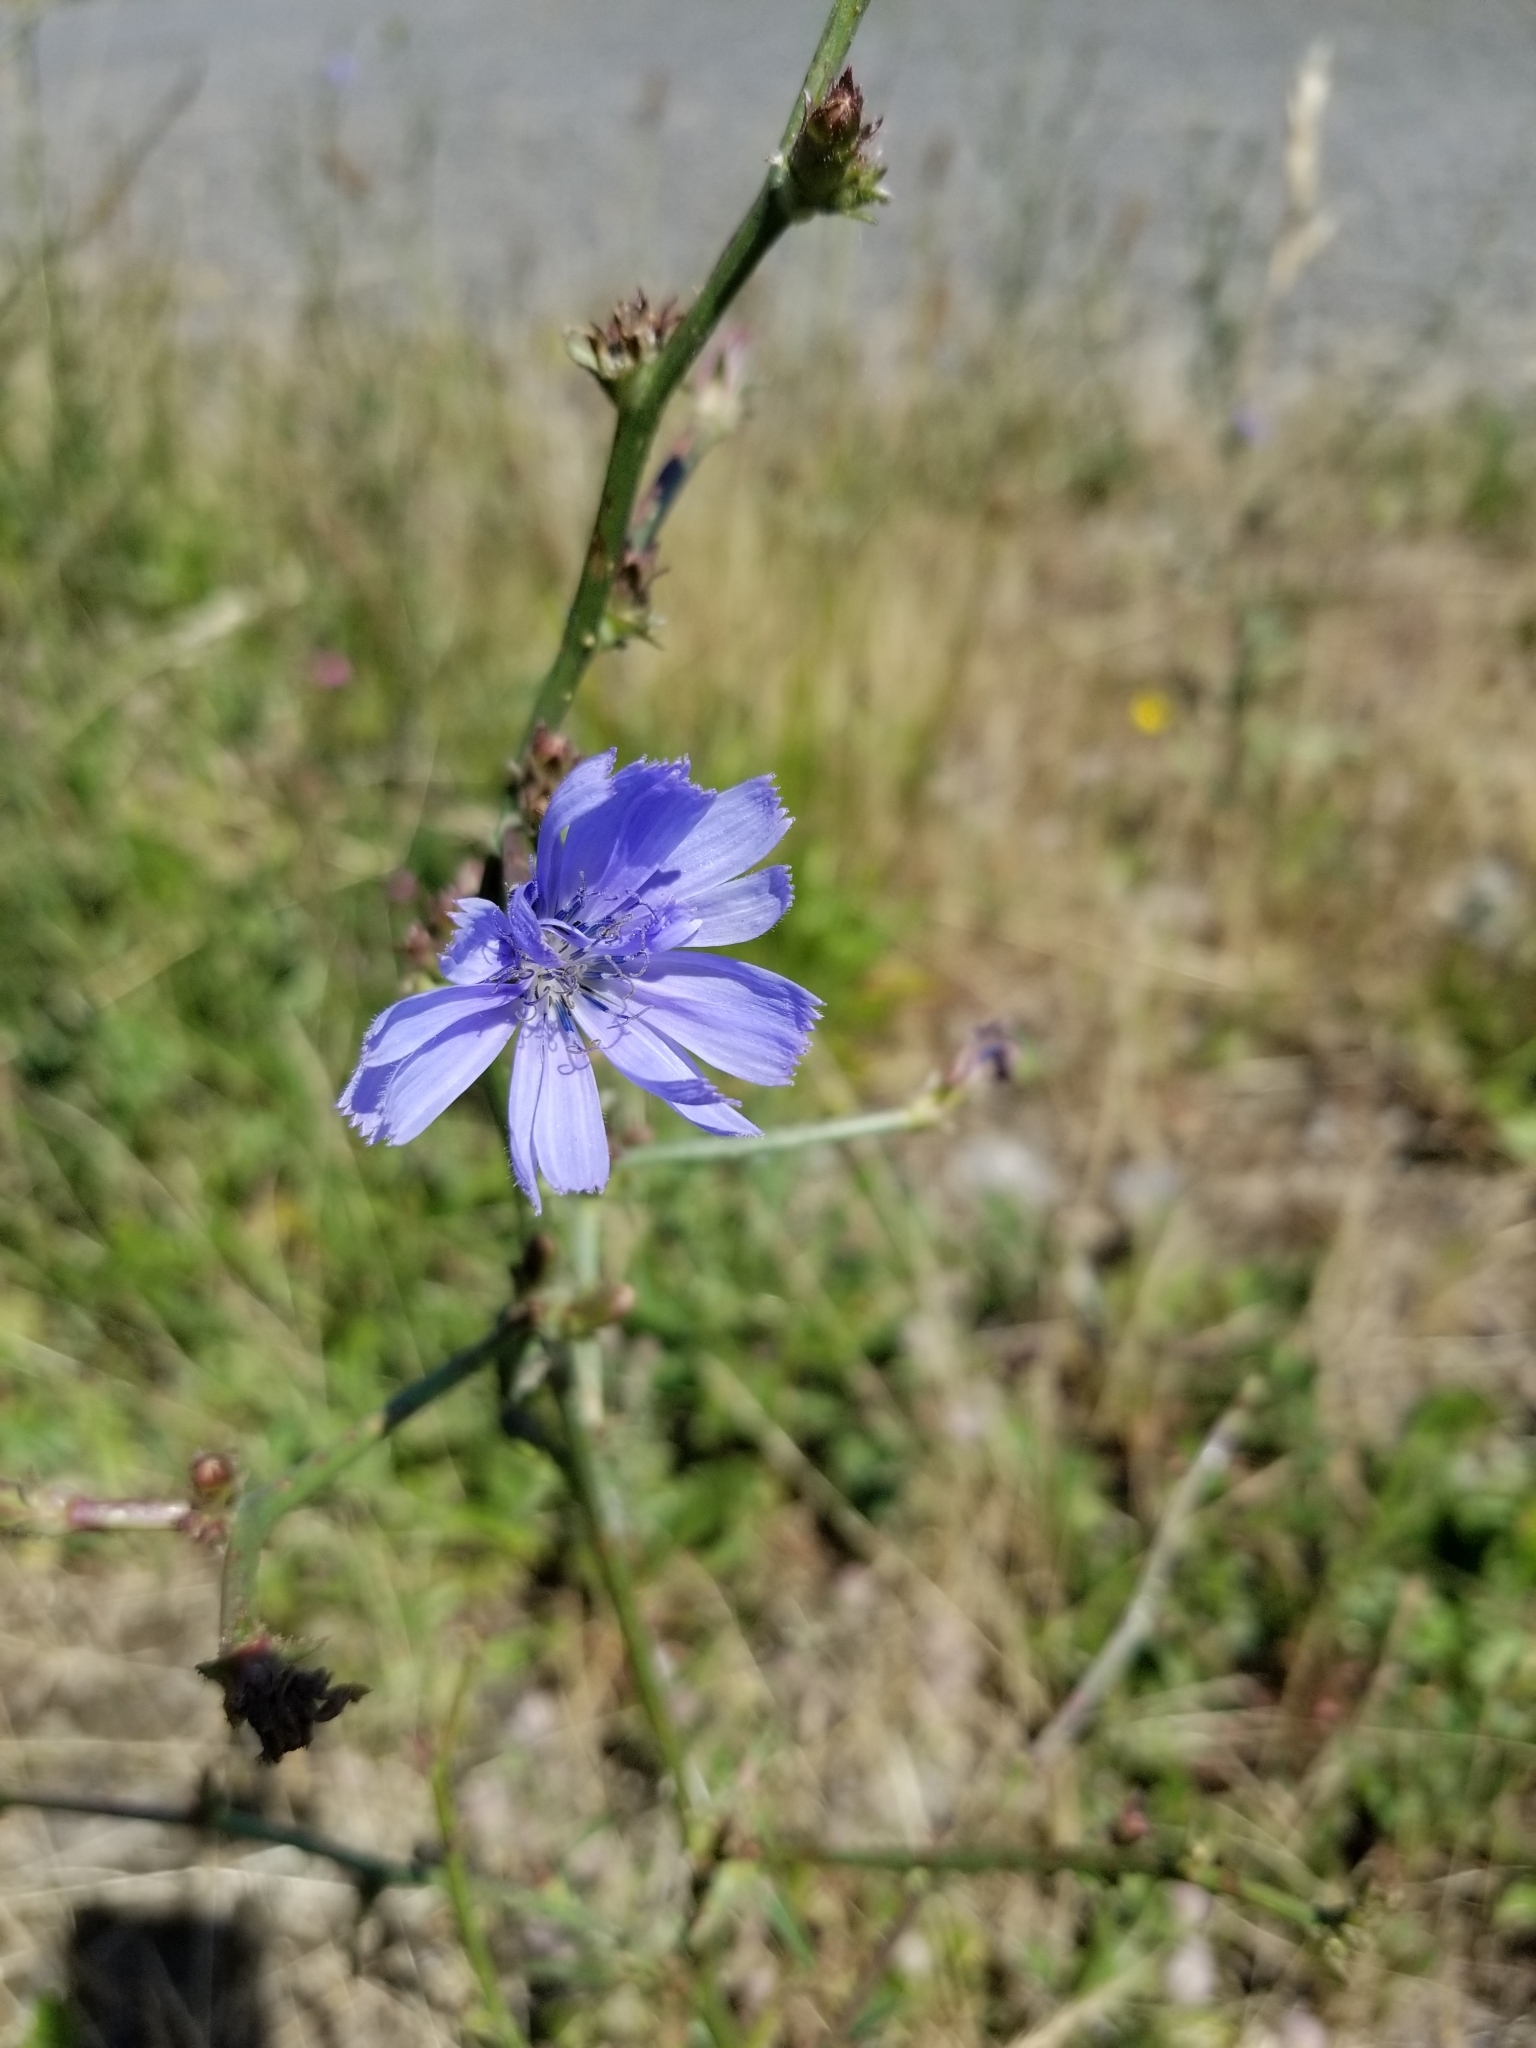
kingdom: Plantae
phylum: Tracheophyta
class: Magnoliopsida
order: Asterales
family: Asteraceae
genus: Cichorium
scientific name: Cichorium intybus
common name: Chicory
